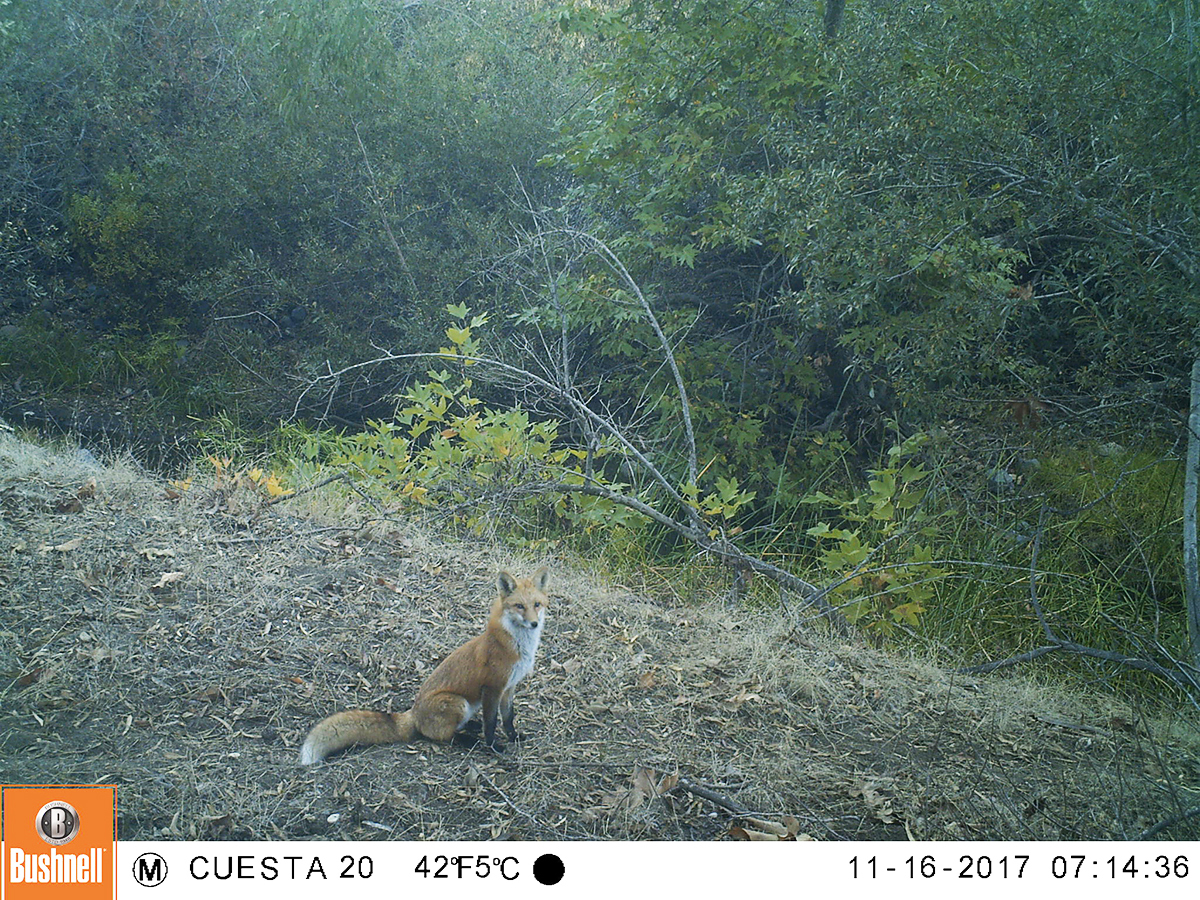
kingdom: Animalia
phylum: Chordata
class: Mammalia
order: Carnivora
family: Canidae
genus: Vulpes
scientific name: Vulpes vulpes
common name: Red fox
